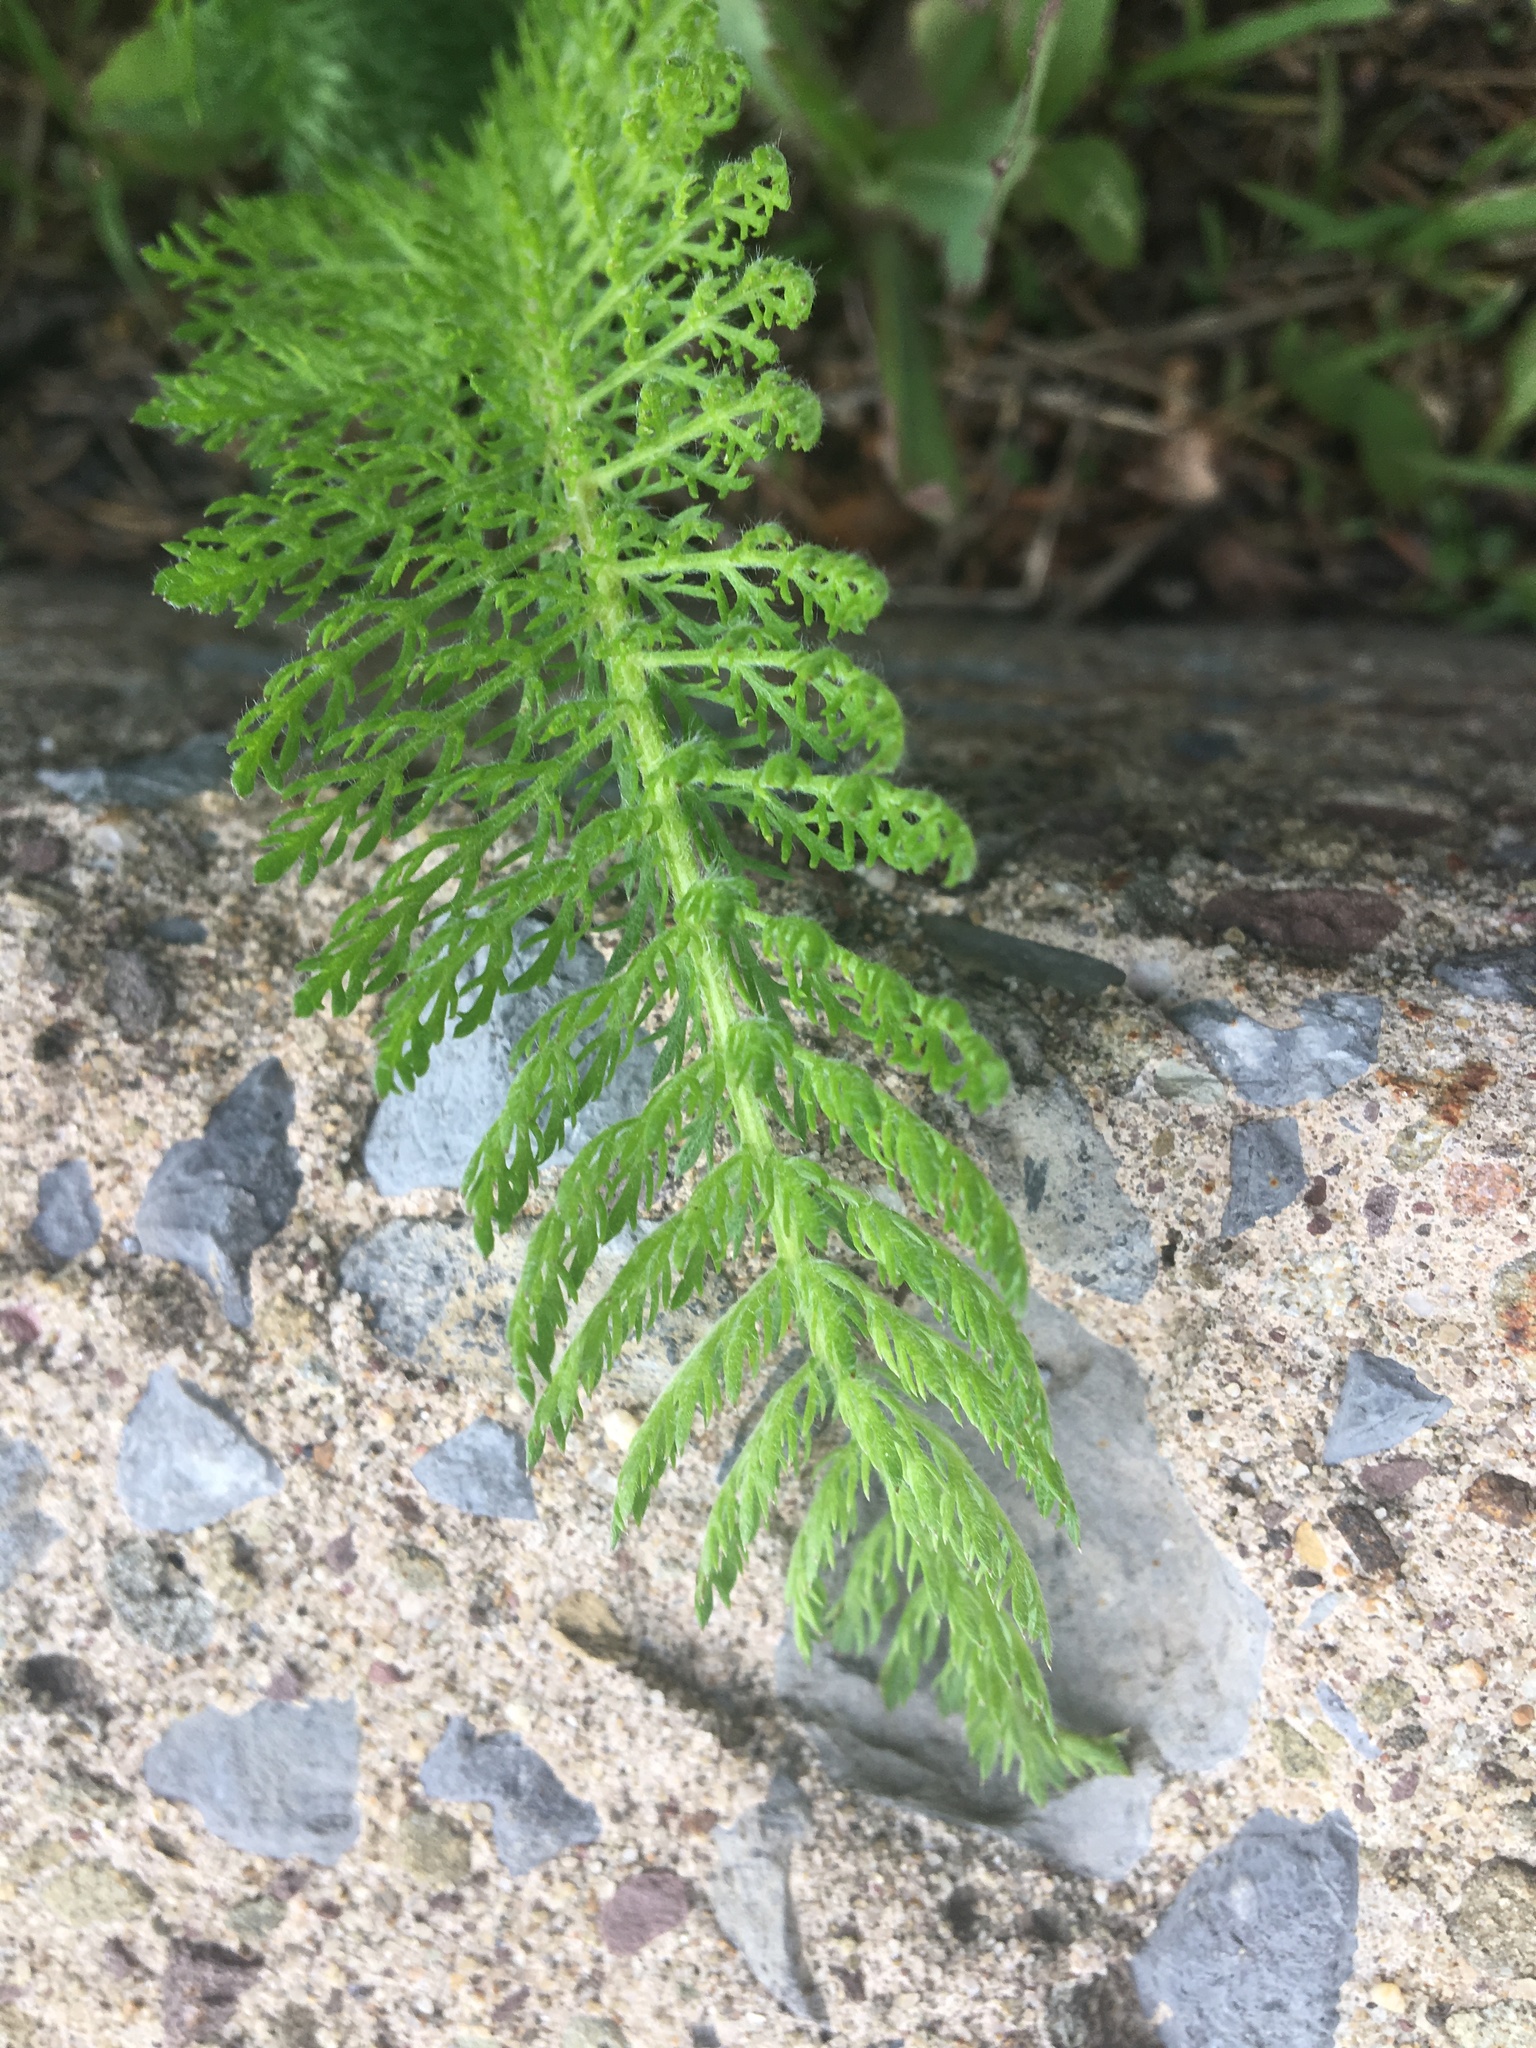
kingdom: Plantae
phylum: Tracheophyta
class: Magnoliopsida
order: Asterales
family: Asteraceae
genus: Achillea
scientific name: Achillea millefolium
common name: Yarrow
